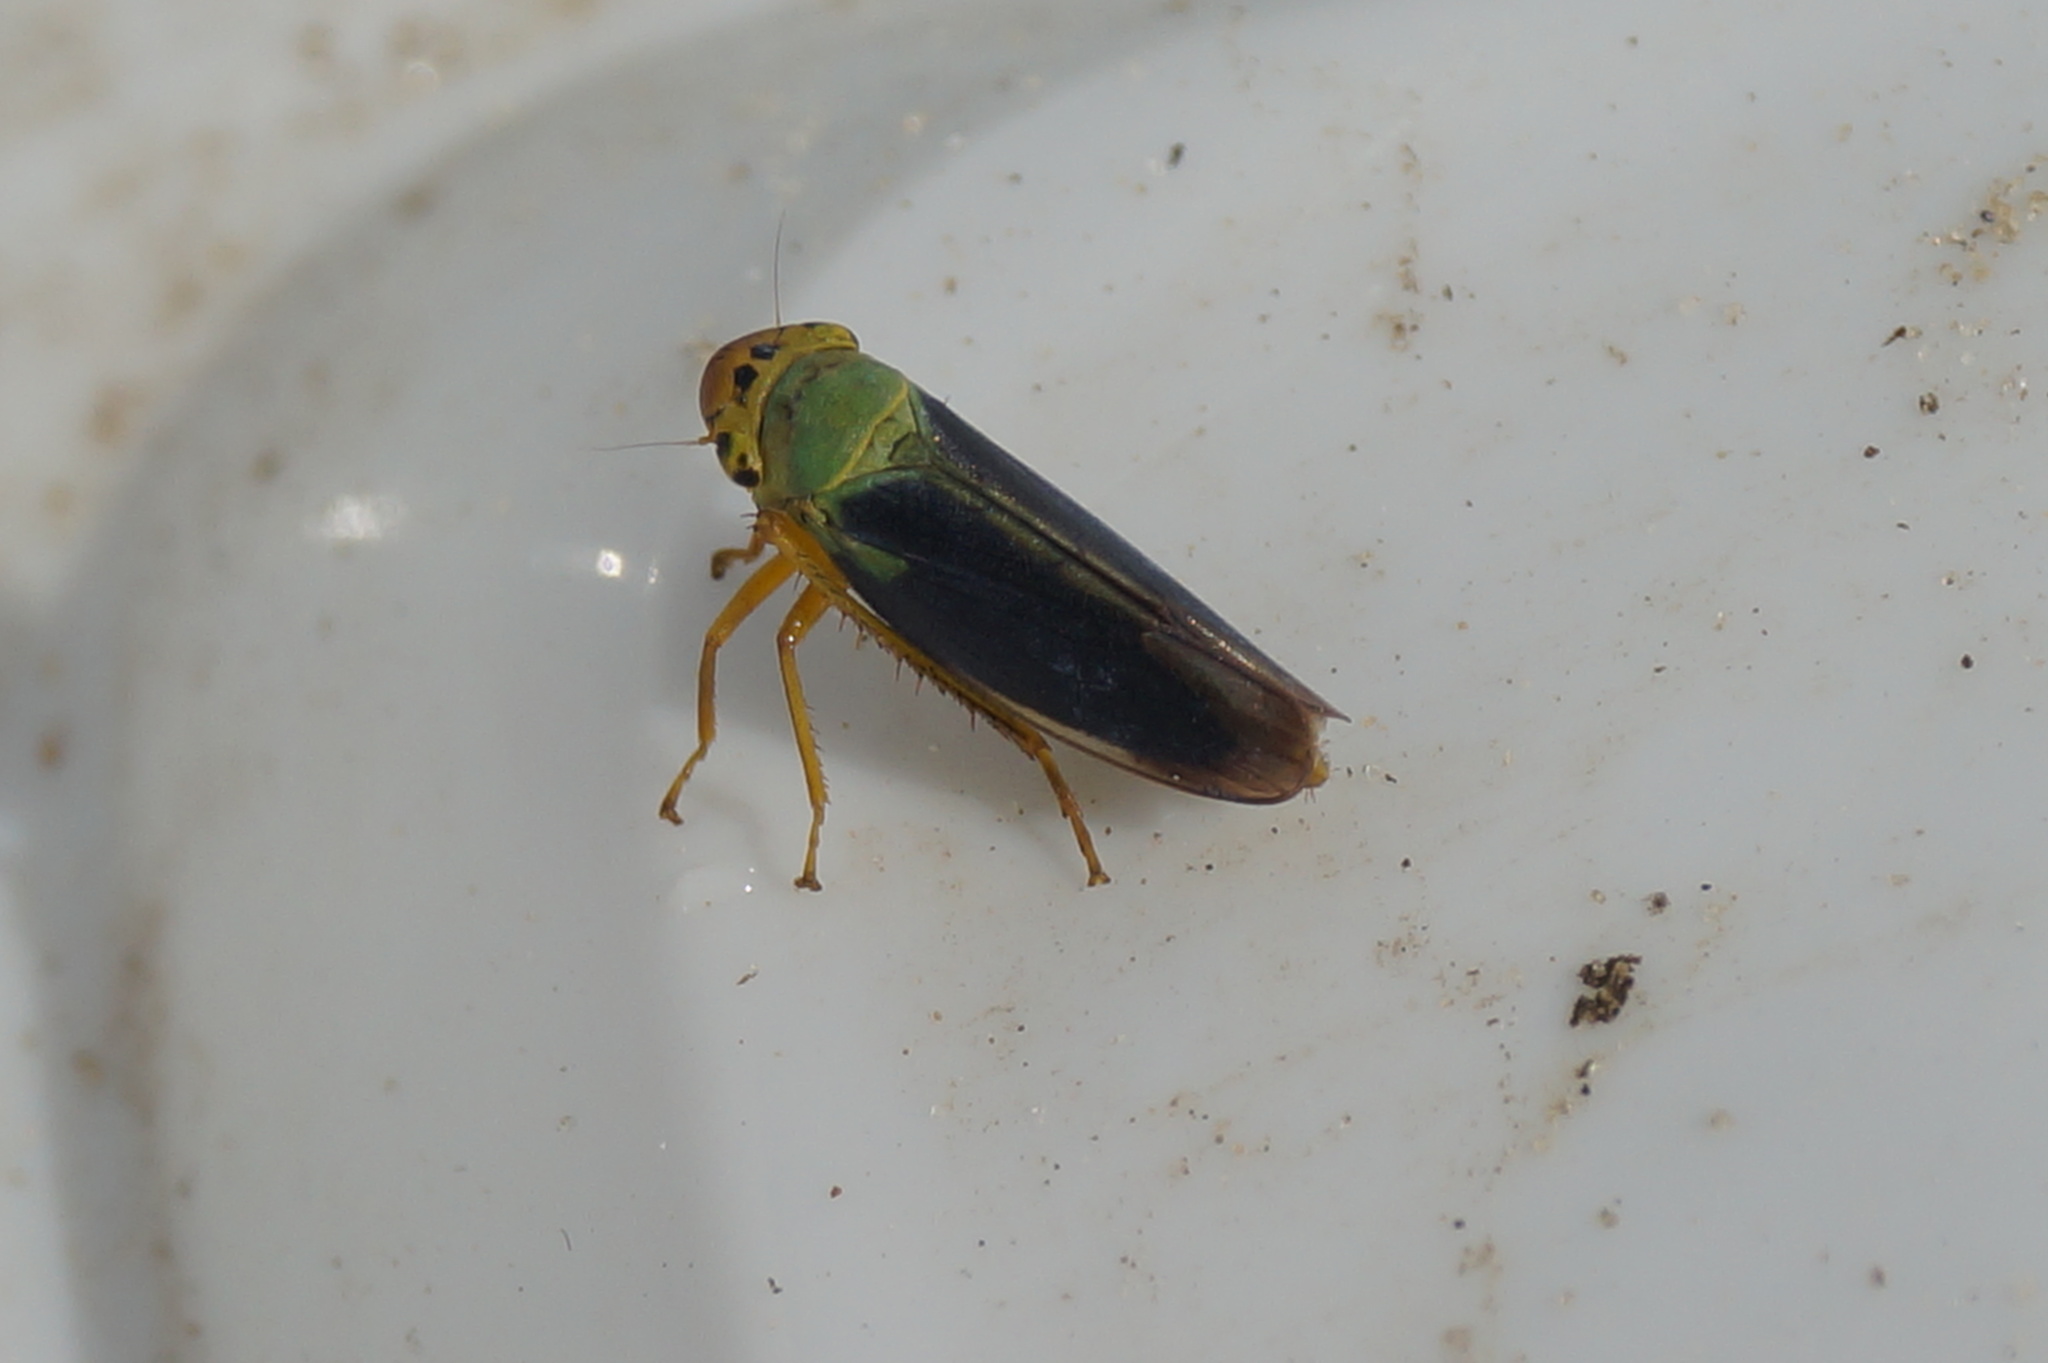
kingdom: Animalia
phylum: Arthropoda
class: Insecta
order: Hemiptera
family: Cicadellidae
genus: Cicadella
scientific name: Cicadella viridis
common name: Leafhopper
